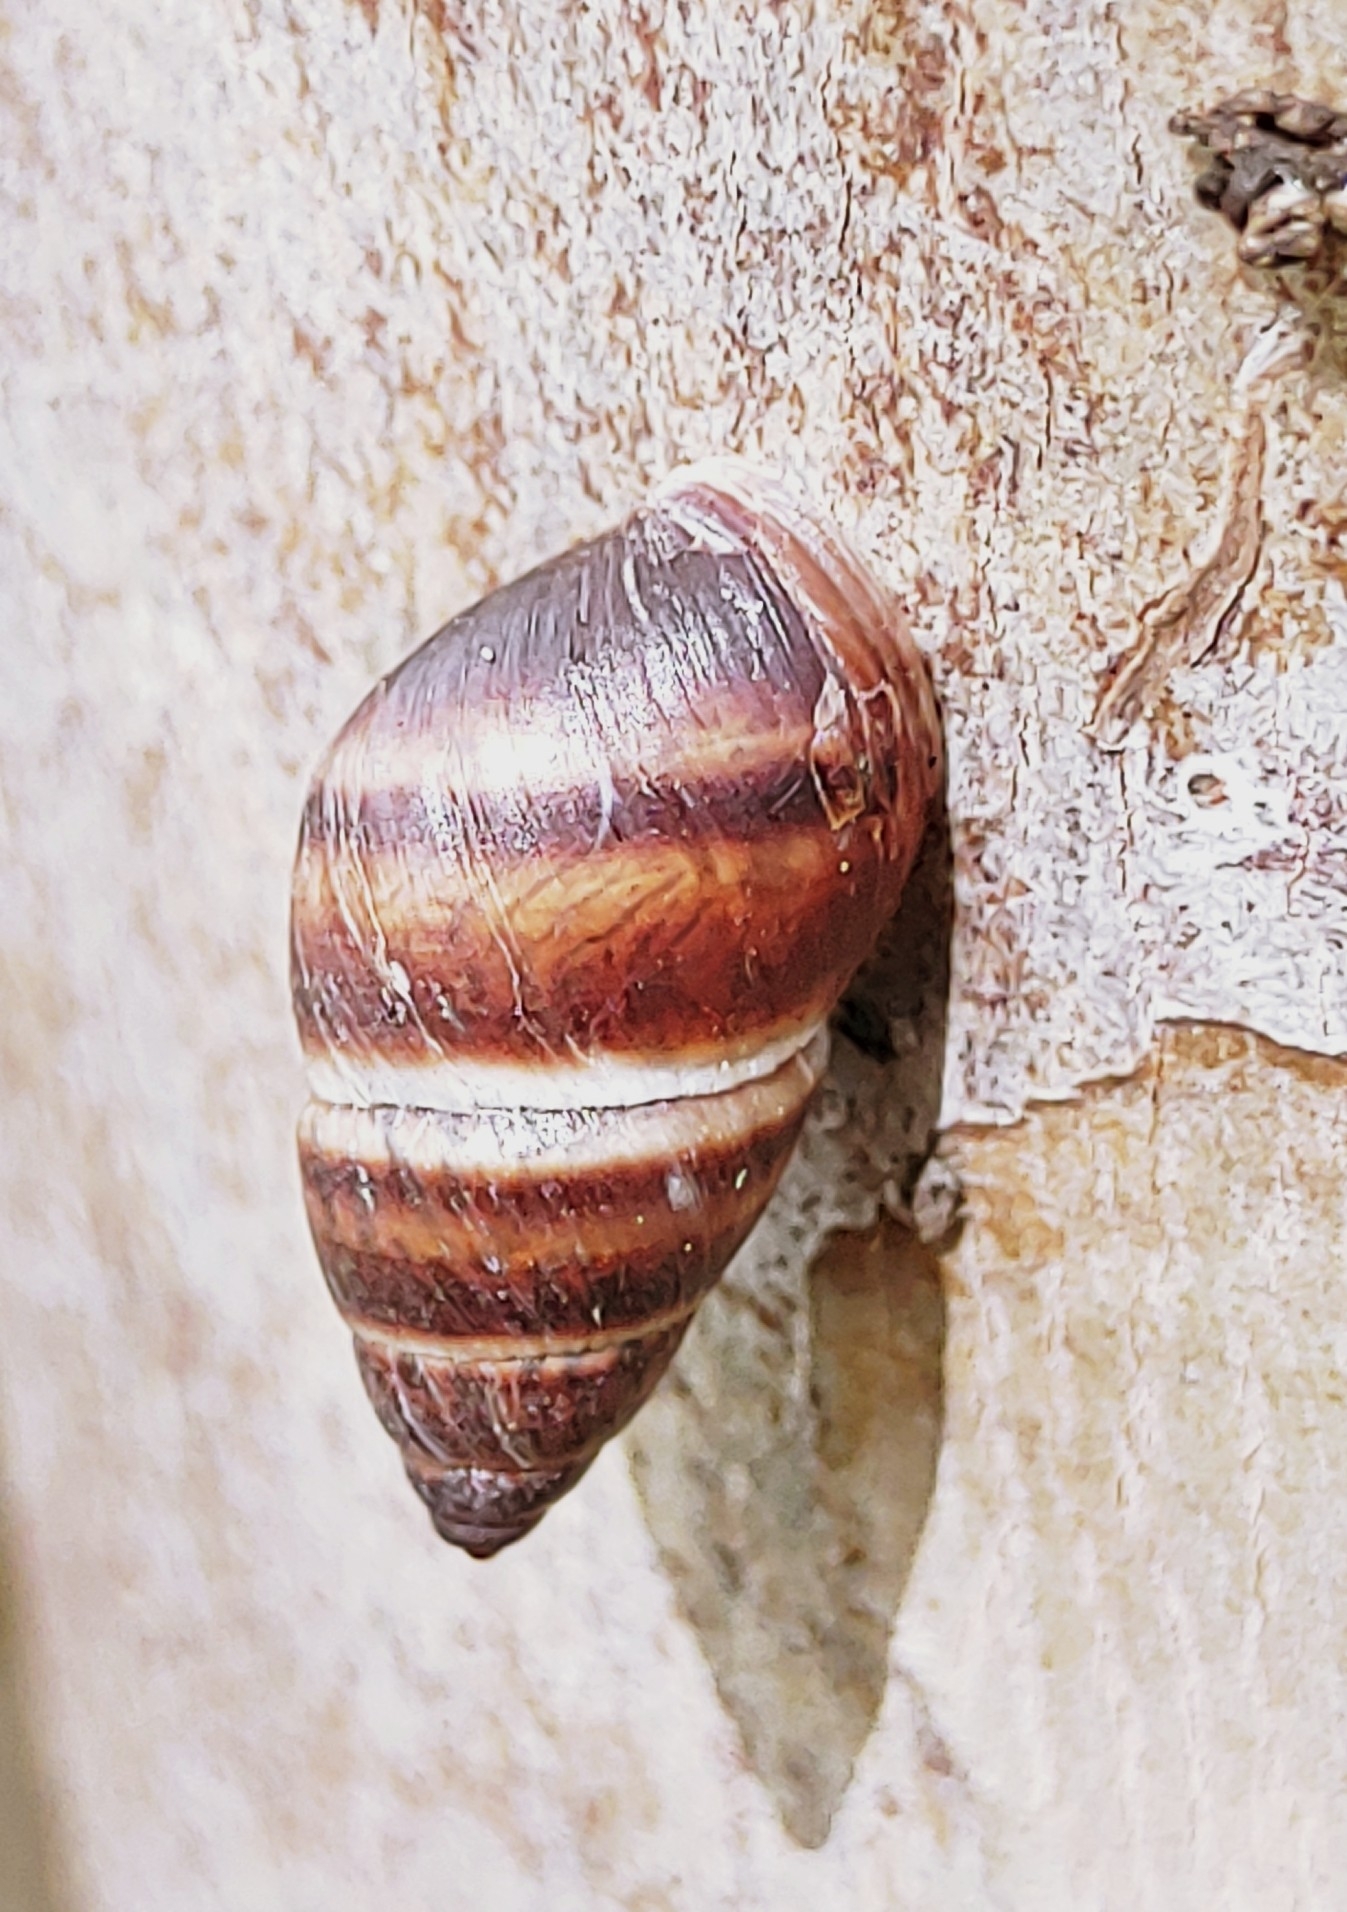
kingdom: Animalia
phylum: Mollusca
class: Gastropoda
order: Stylommatophora
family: Bulimulidae
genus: Bulimulus
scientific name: Bulimulus guadalupensis
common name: West indian bulimulus
